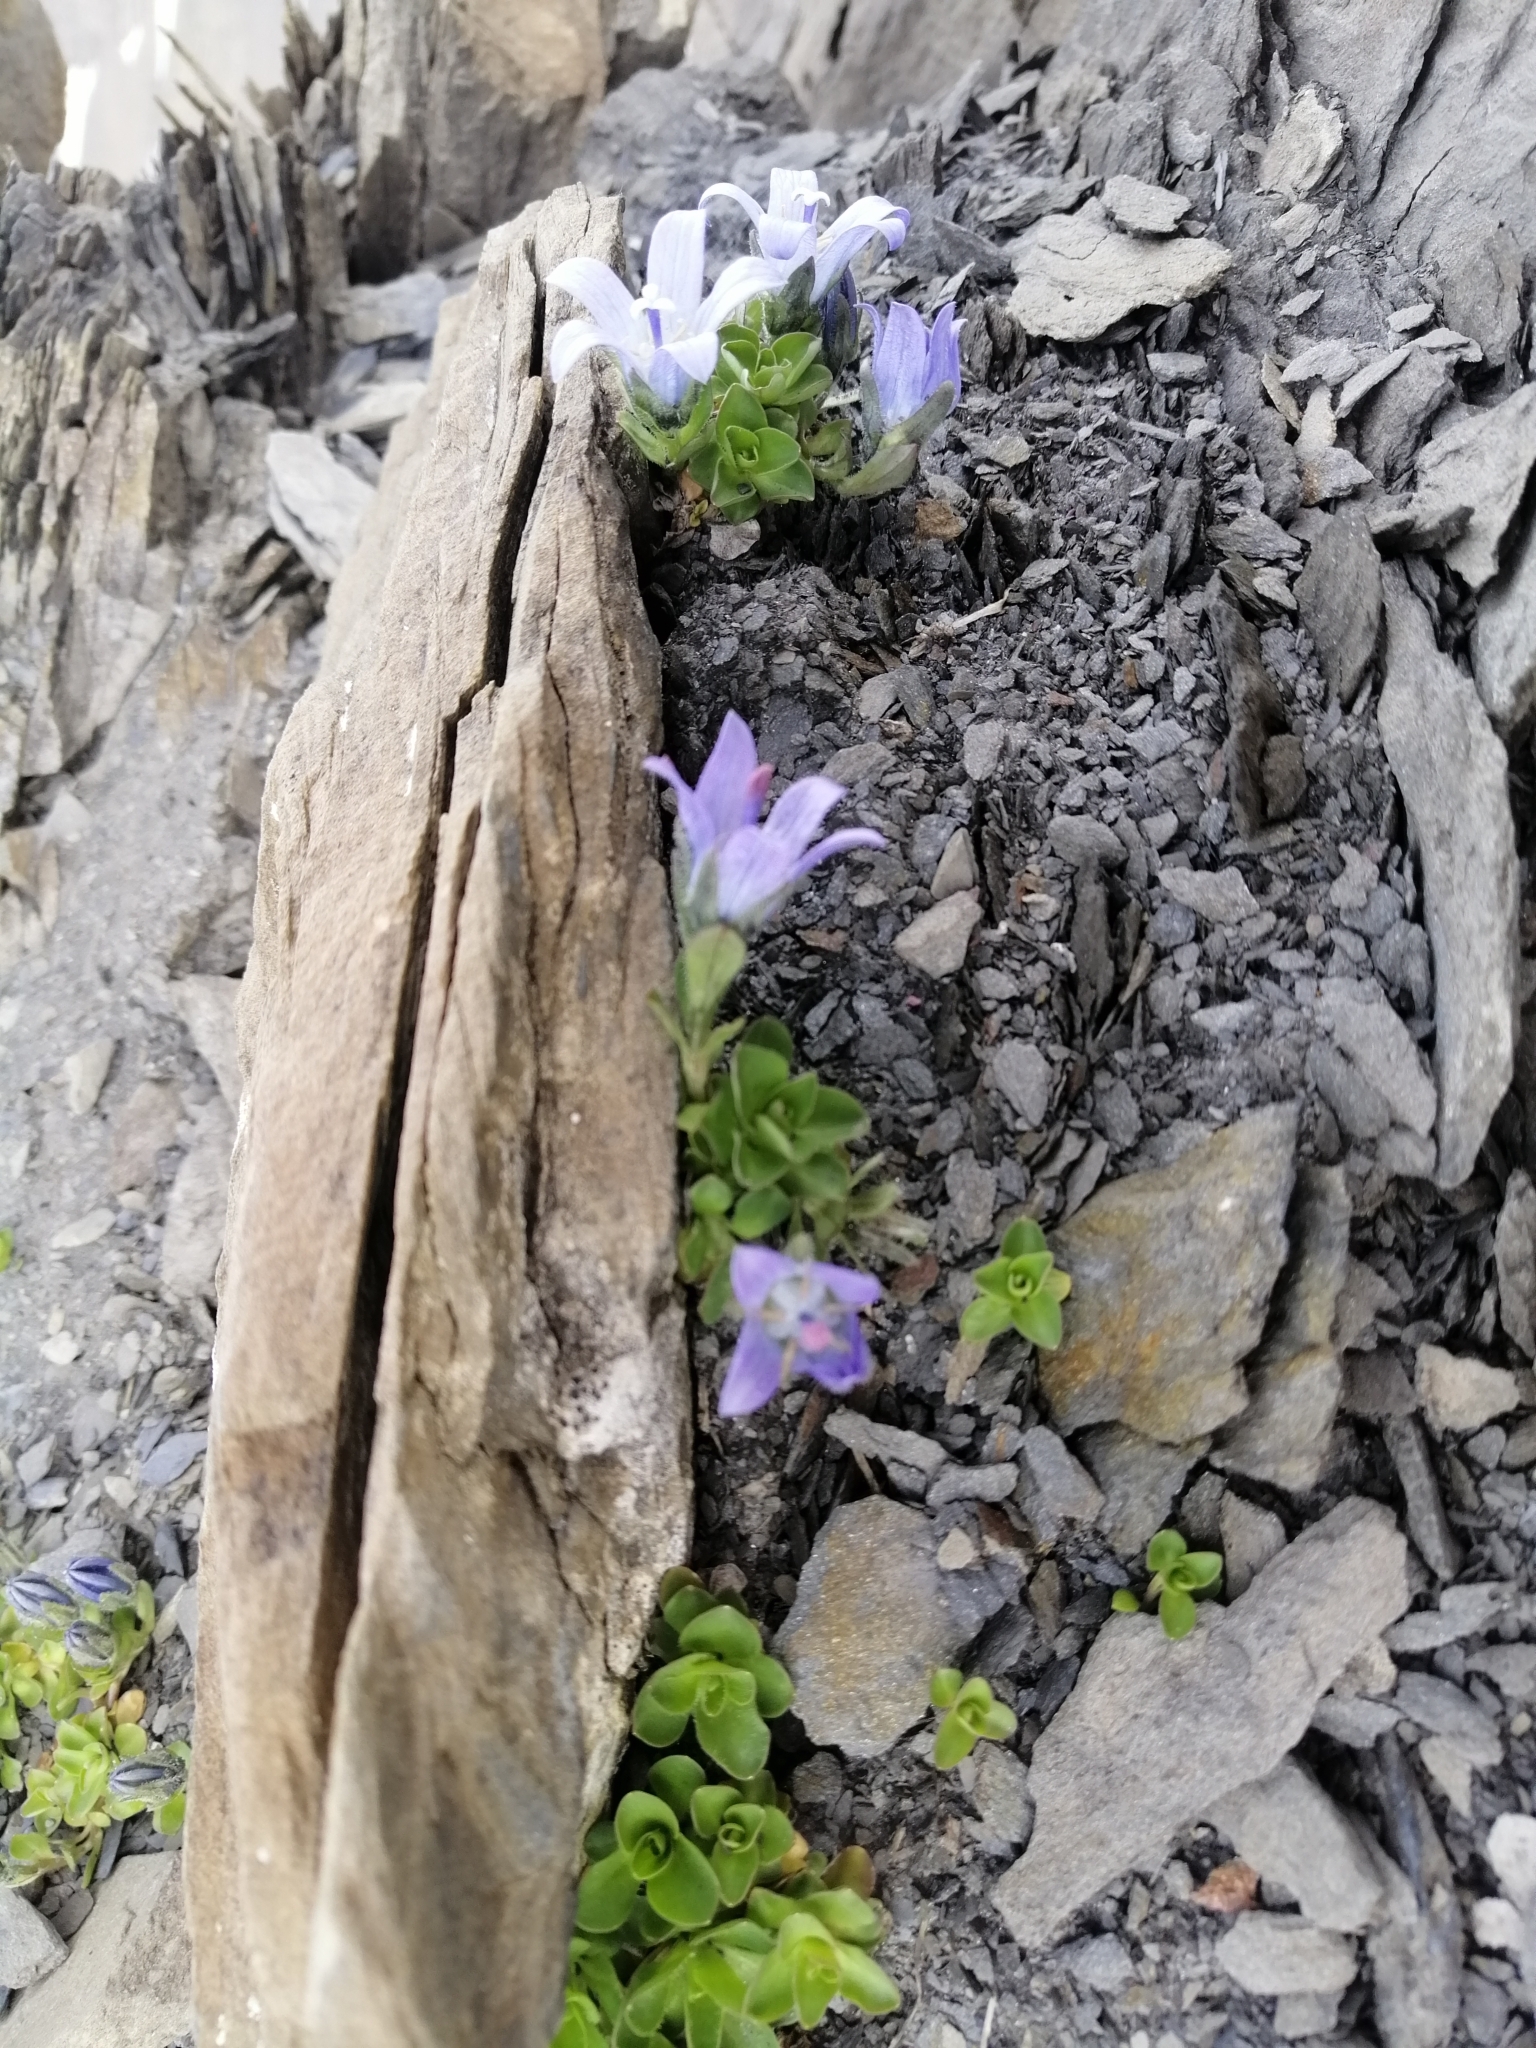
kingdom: Plantae
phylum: Tracheophyta
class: Magnoliopsida
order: Asterales
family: Campanulaceae
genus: Campanula
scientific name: Campanula cenisia
